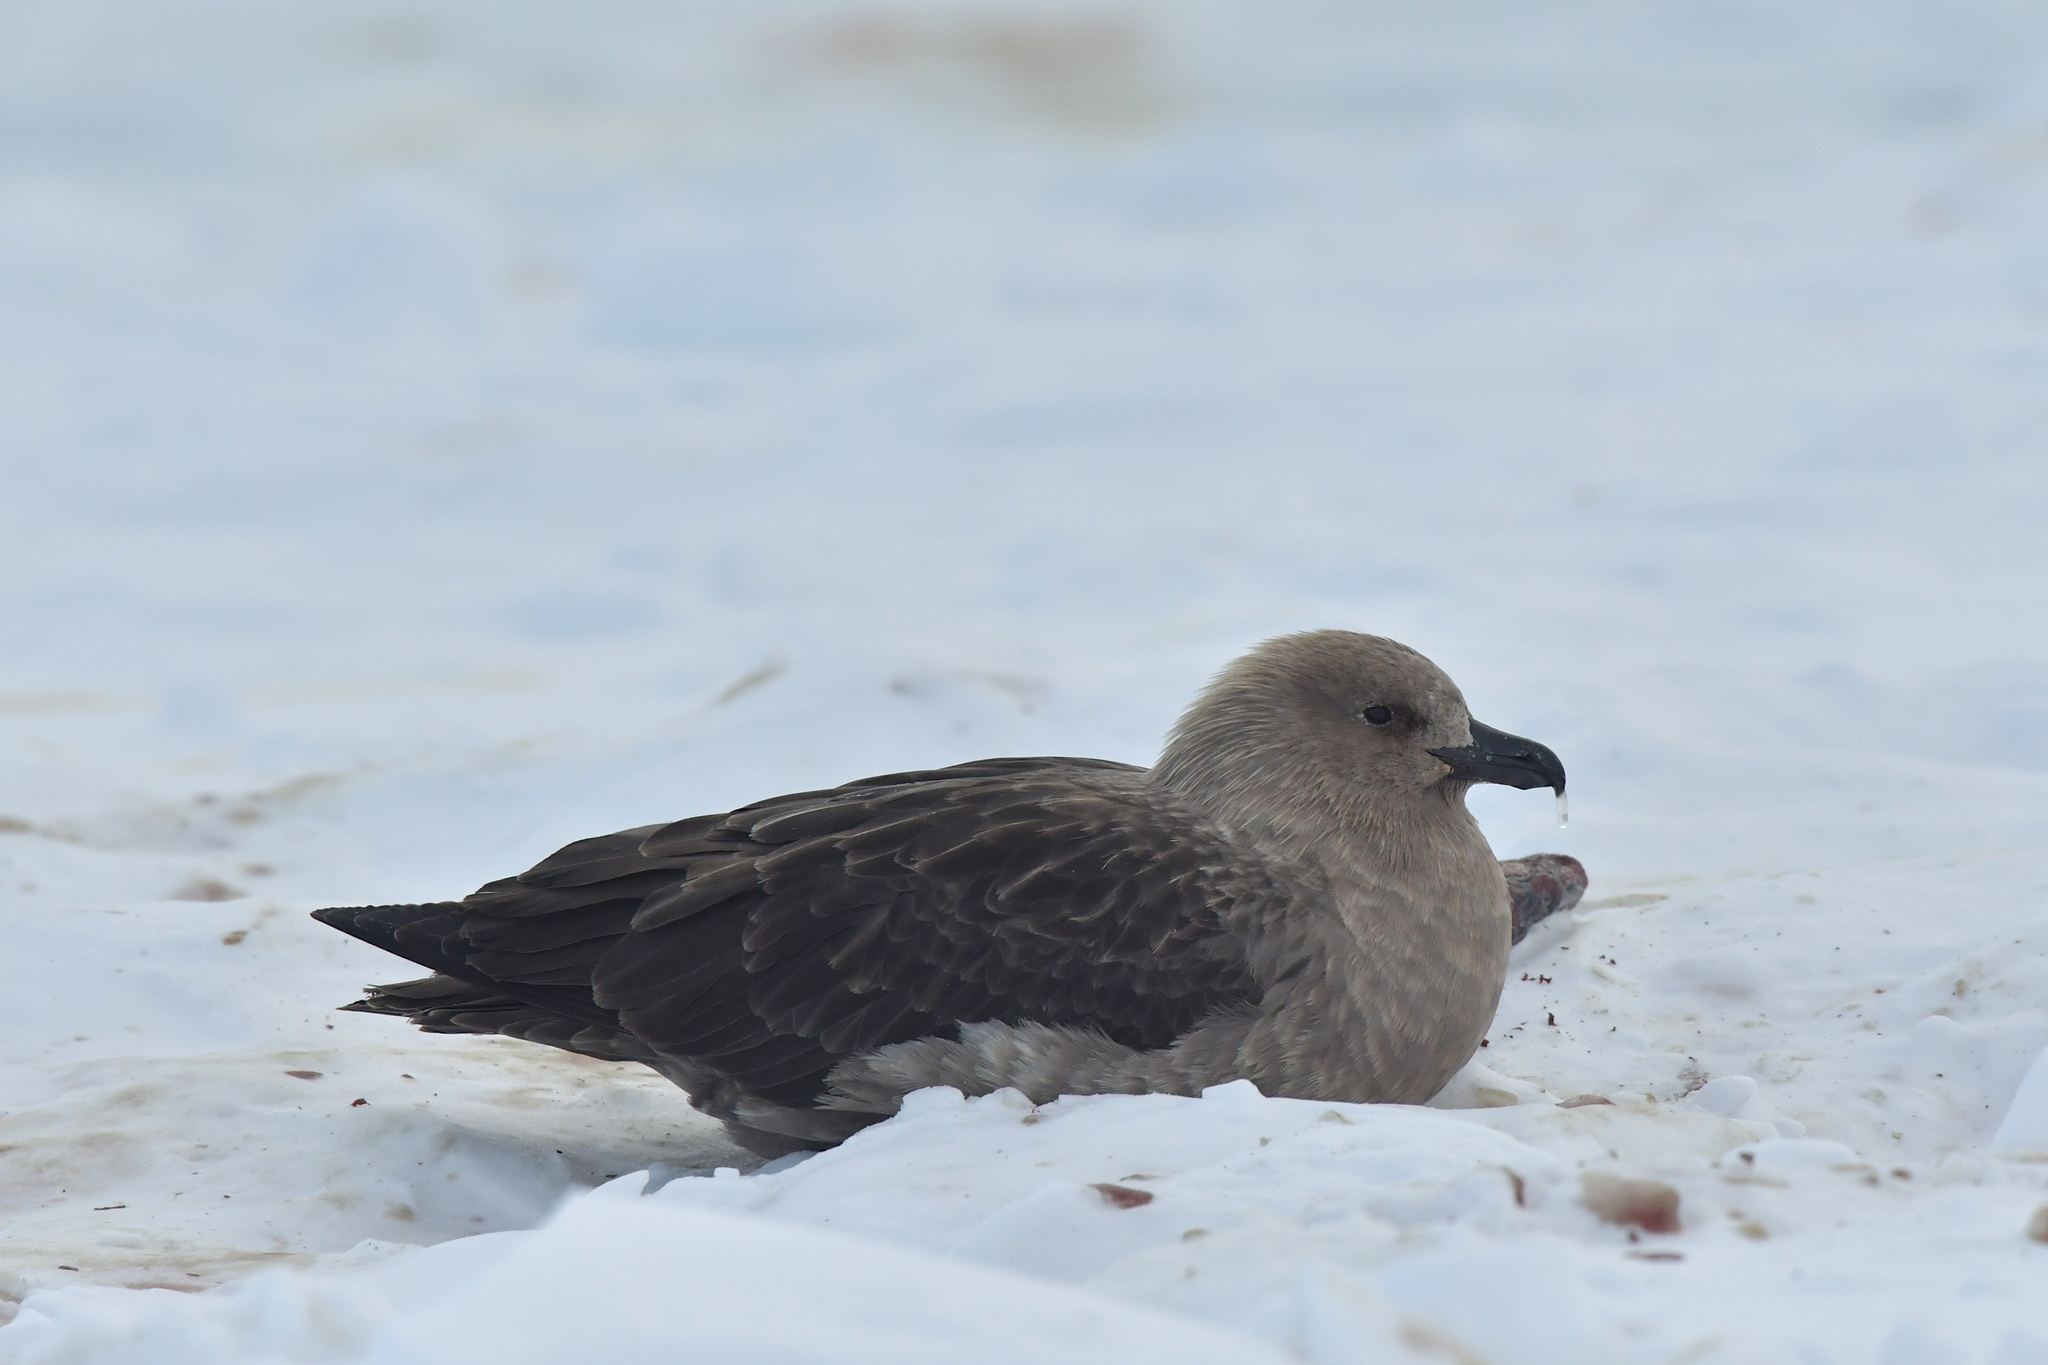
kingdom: Animalia
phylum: Chordata
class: Aves
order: Charadriiformes
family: Stercorariidae
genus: Stercorarius
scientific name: Stercorarius maccormicki
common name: South polar skua
